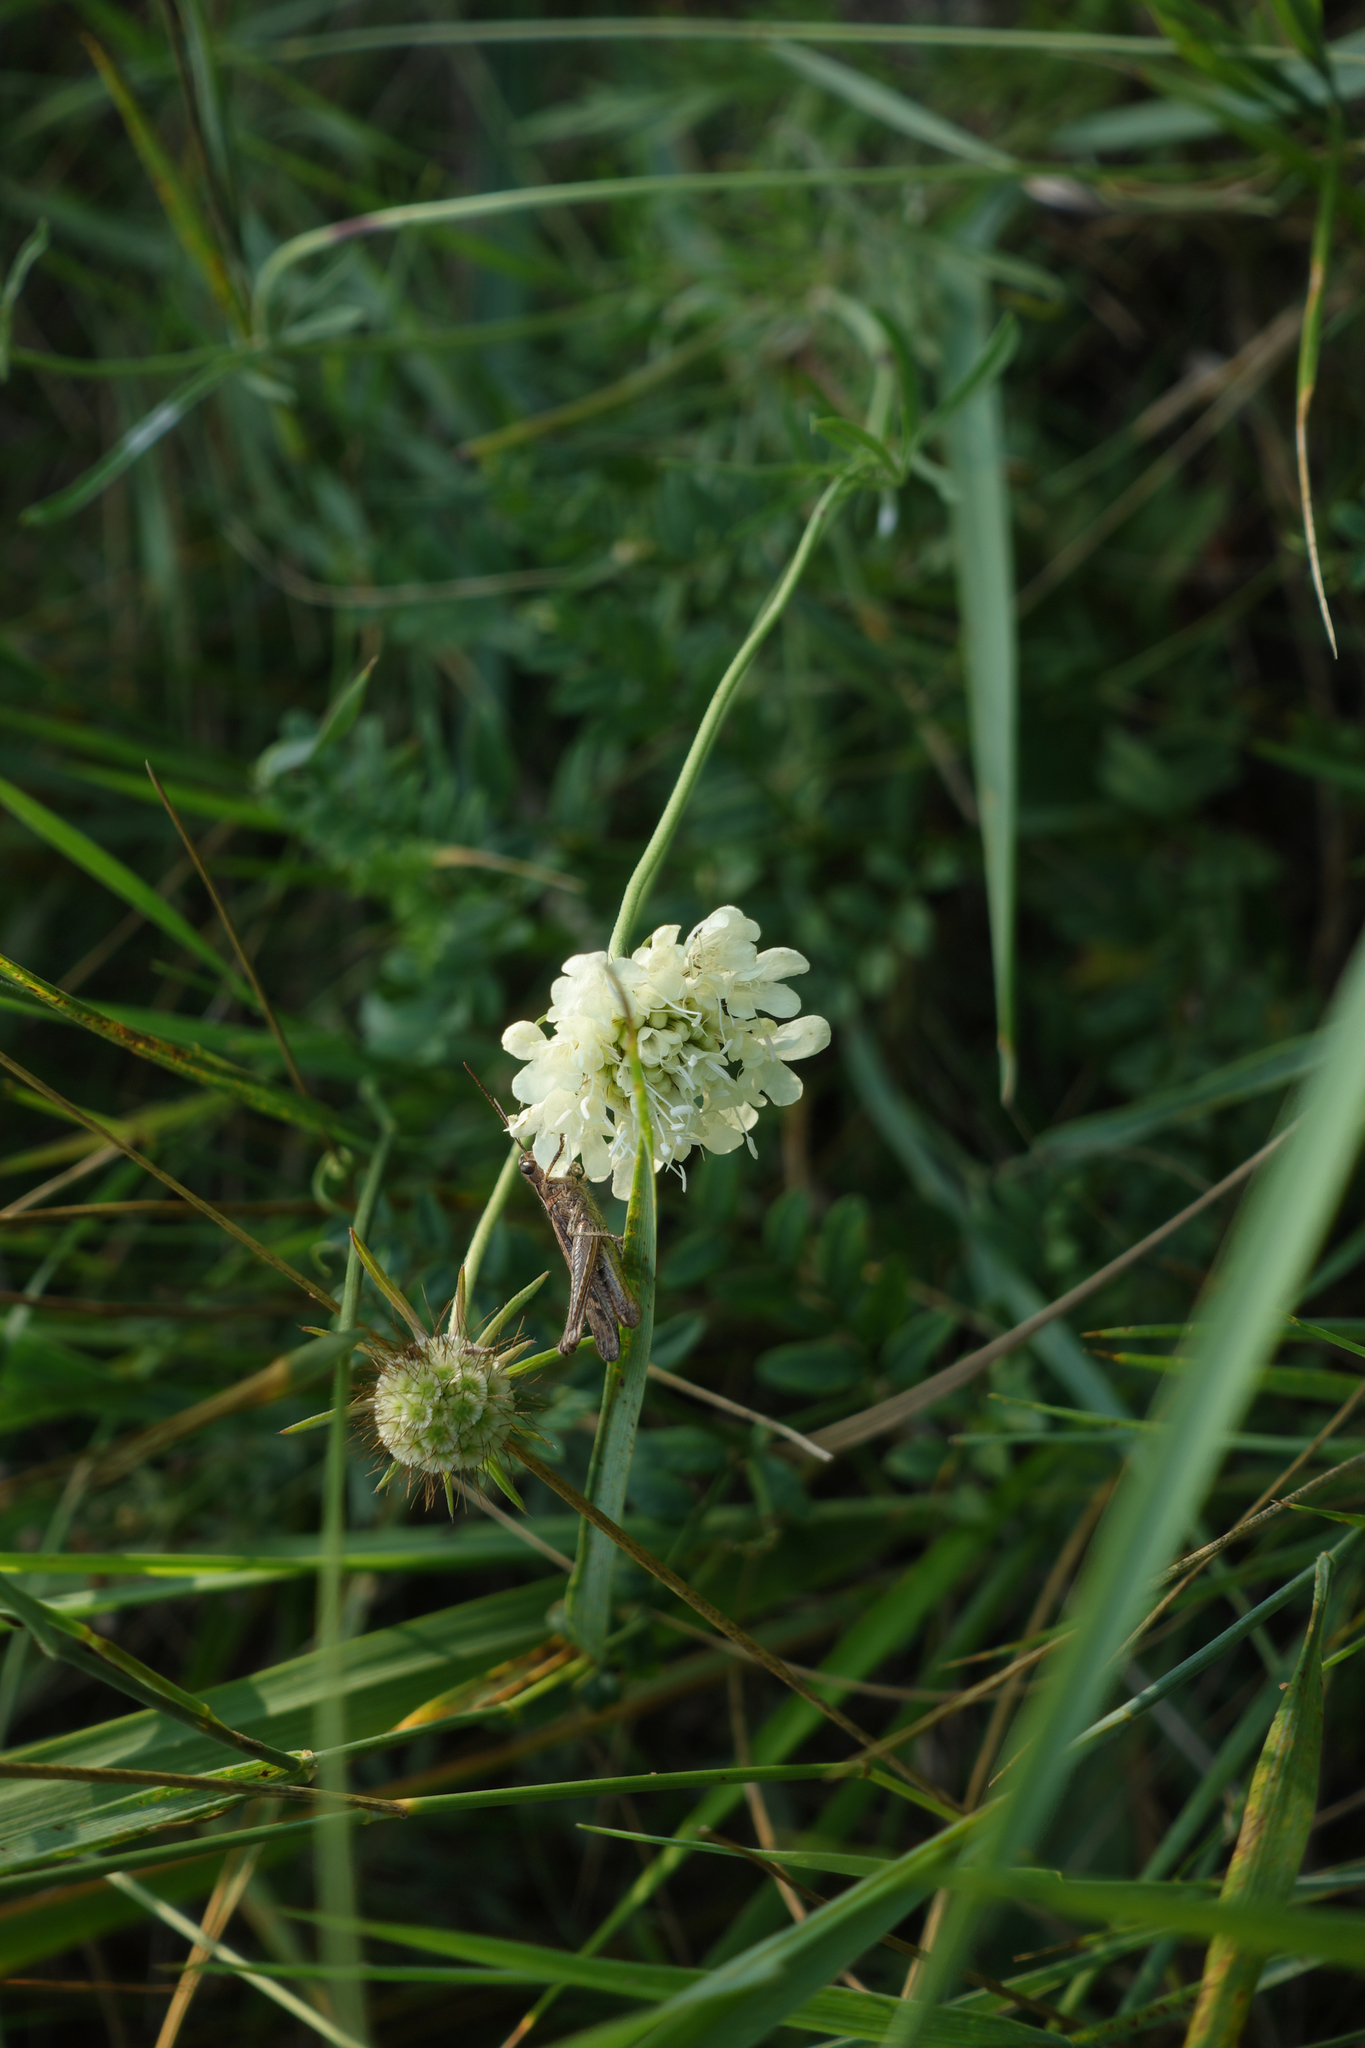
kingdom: Plantae
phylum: Tracheophyta
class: Magnoliopsida
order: Dipsacales
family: Caprifoliaceae
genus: Scabiosa
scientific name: Scabiosa ochroleuca
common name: Cream pincushions
